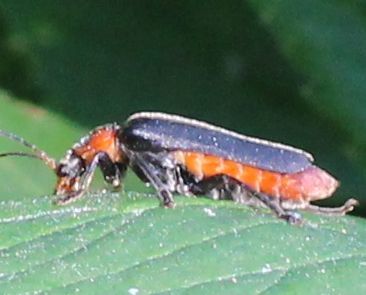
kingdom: Animalia
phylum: Arthropoda
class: Insecta
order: Coleoptera
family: Cantharidae
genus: Cantharis
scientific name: Cantharis fusca
